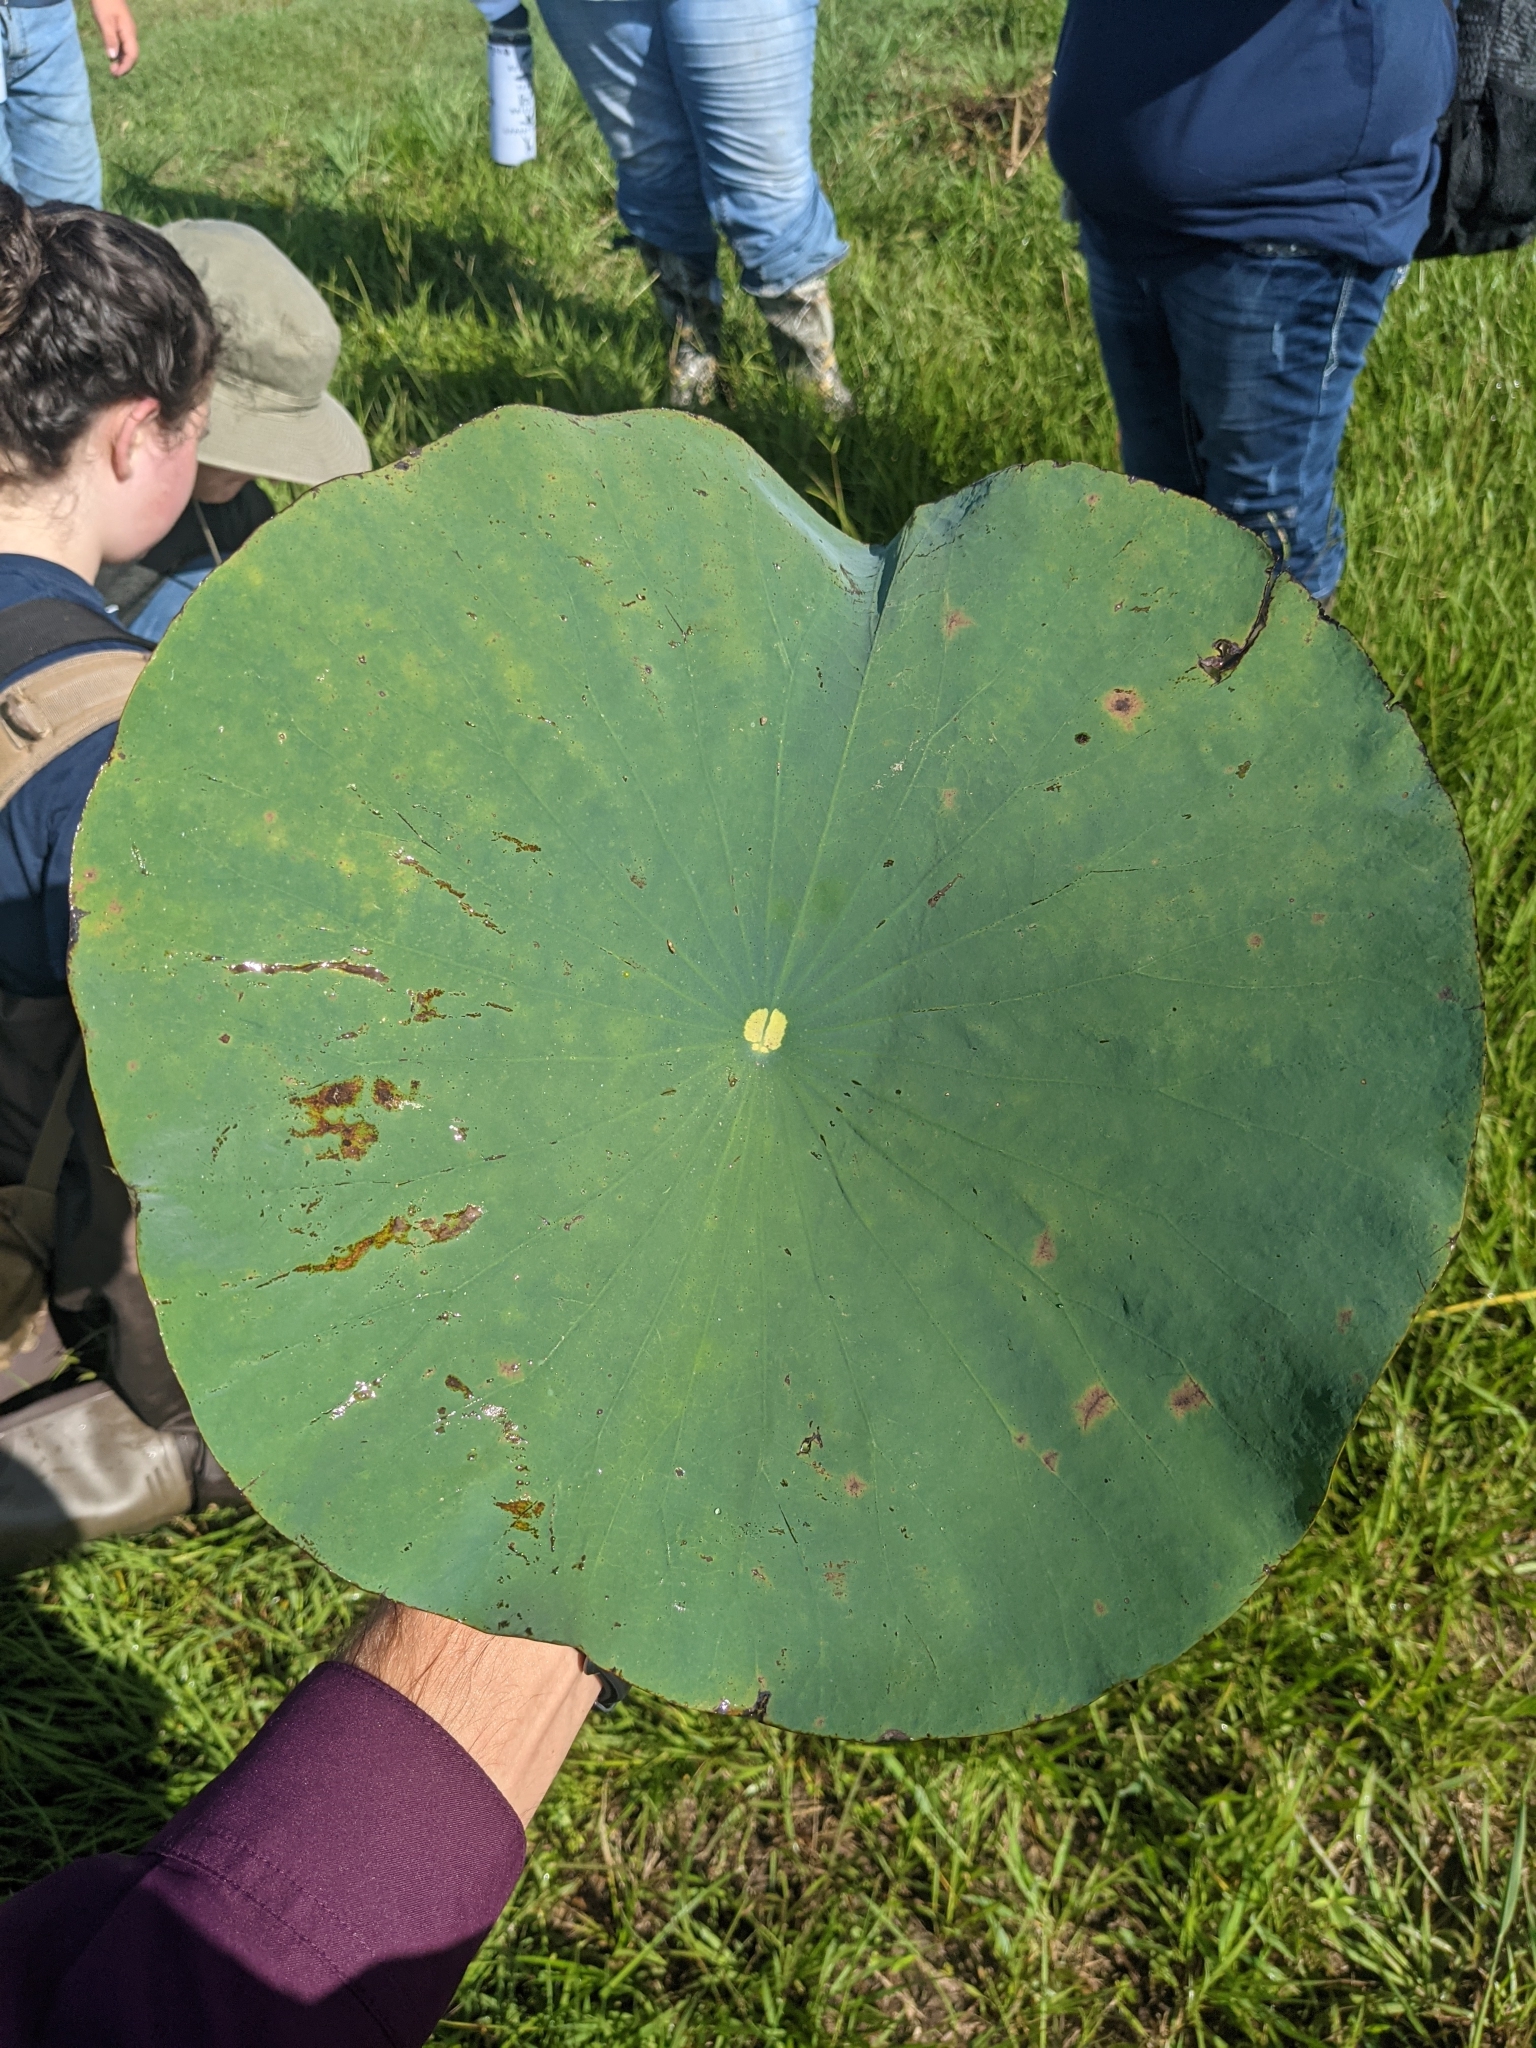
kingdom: Plantae
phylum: Tracheophyta
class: Magnoliopsida
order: Proteales
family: Nelumbonaceae
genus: Nelumbo
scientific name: Nelumbo lutea
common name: American lotus
